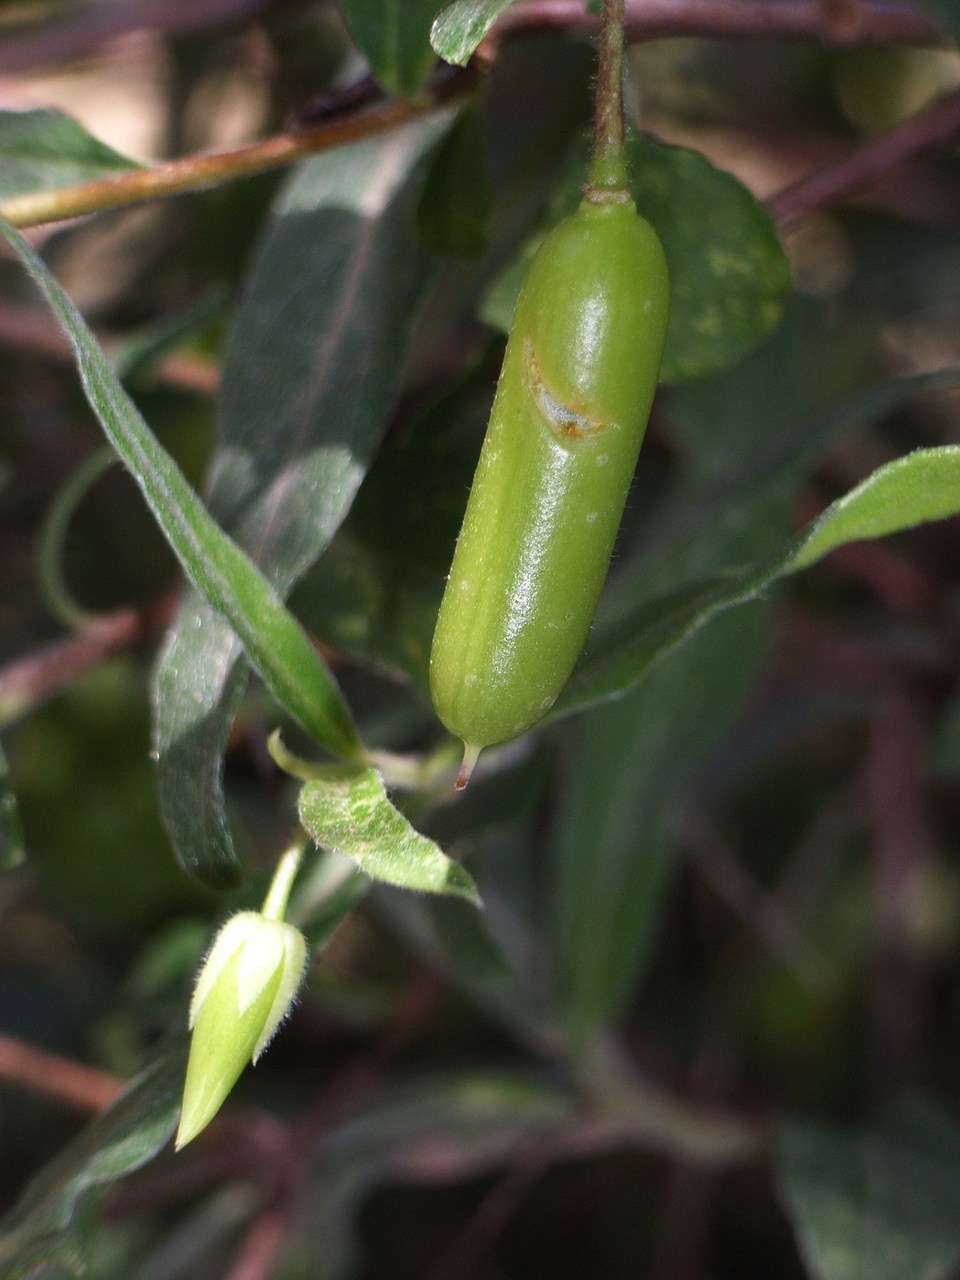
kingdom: Plantae
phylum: Tracheophyta
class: Magnoliopsida
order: Apiales
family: Pittosporaceae
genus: Billardiera
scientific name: Billardiera mutabilis
